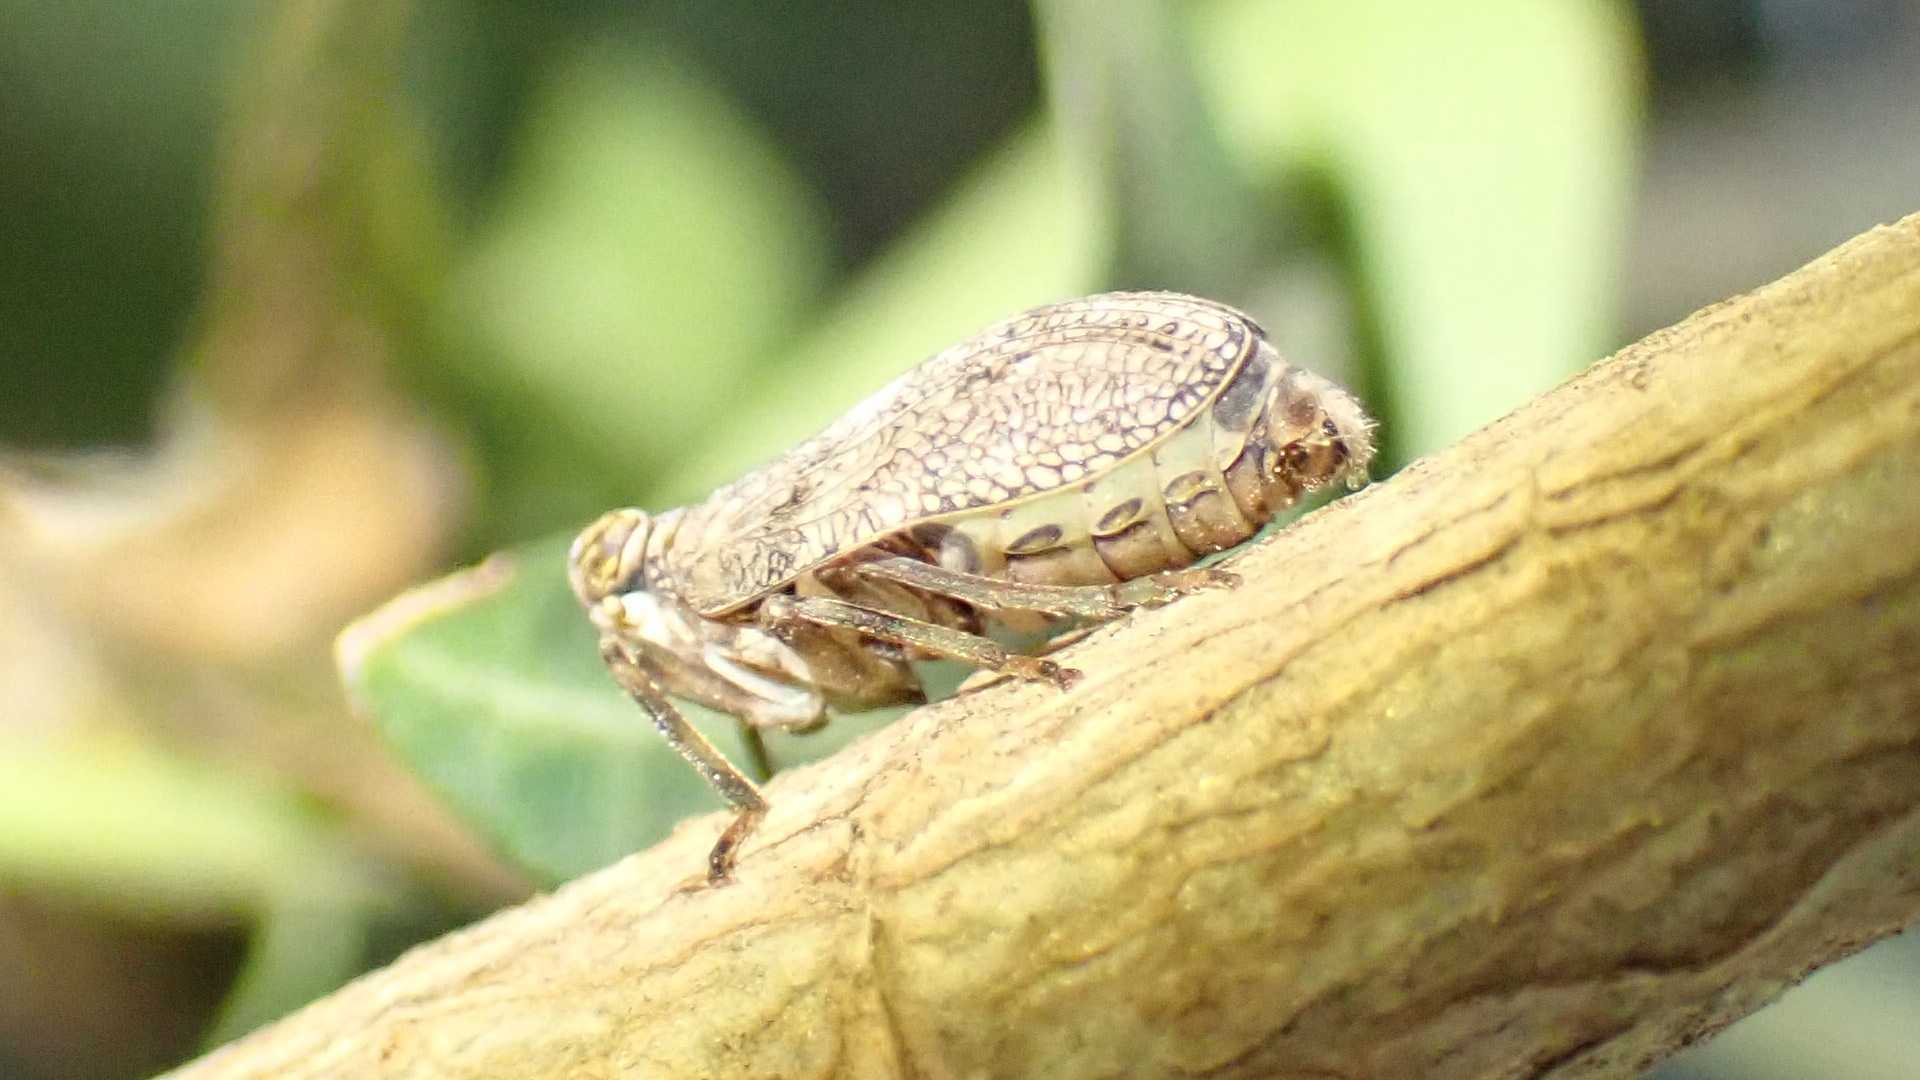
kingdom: Animalia
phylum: Arthropoda
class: Insecta
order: Hemiptera
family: Issidae
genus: Issus
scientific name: Issus coleoptratus
